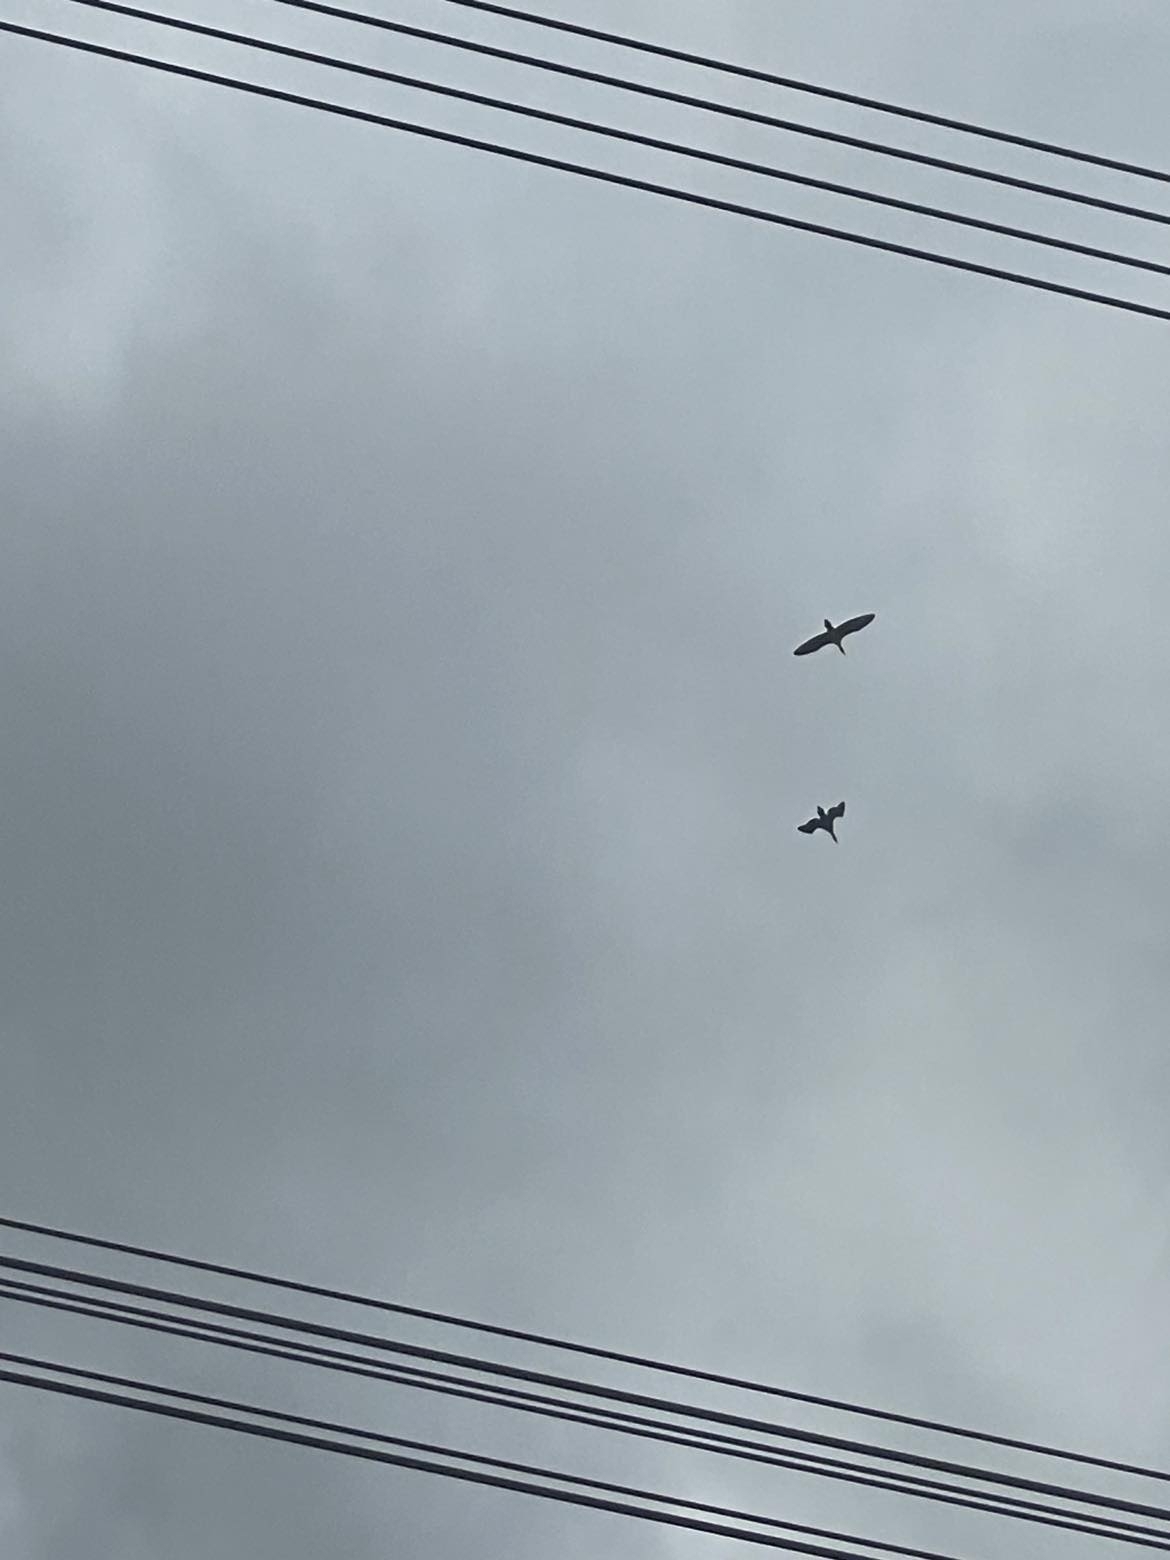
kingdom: Animalia
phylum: Chordata
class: Aves
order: Suliformes
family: Phalacrocoracidae
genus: Phalacrocorax
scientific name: Phalacrocorax carbo
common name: Great cormorant
